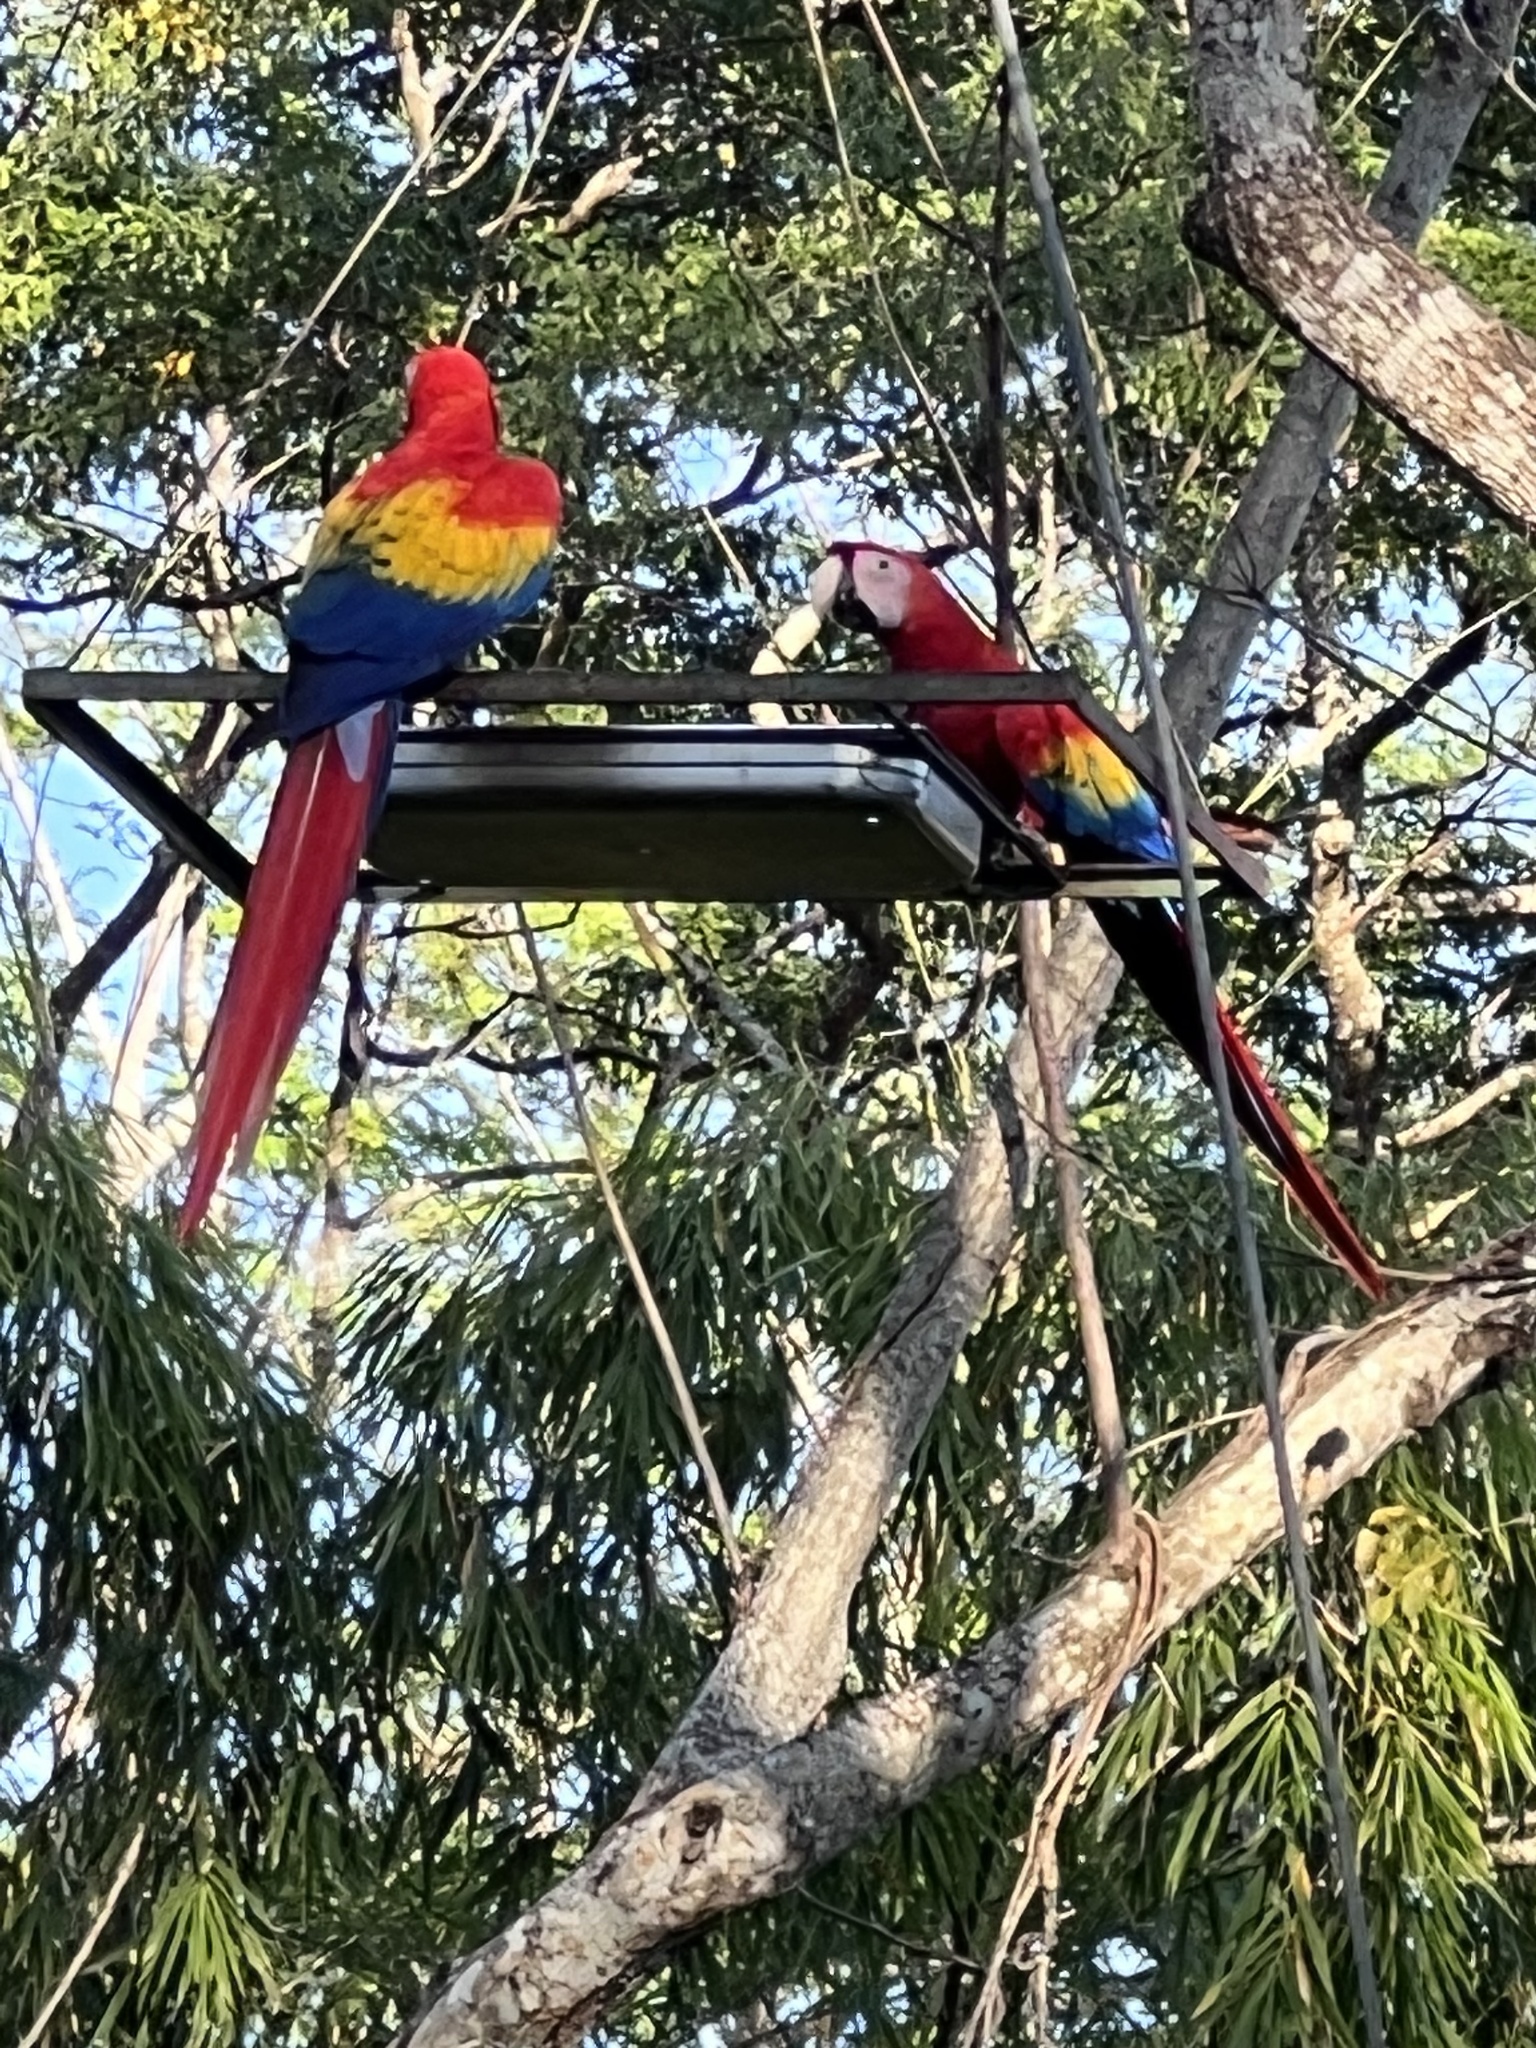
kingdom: Animalia
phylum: Chordata
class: Aves
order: Psittaciformes
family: Psittacidae
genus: Ara
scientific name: Ara macao
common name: Scarlet macaw
